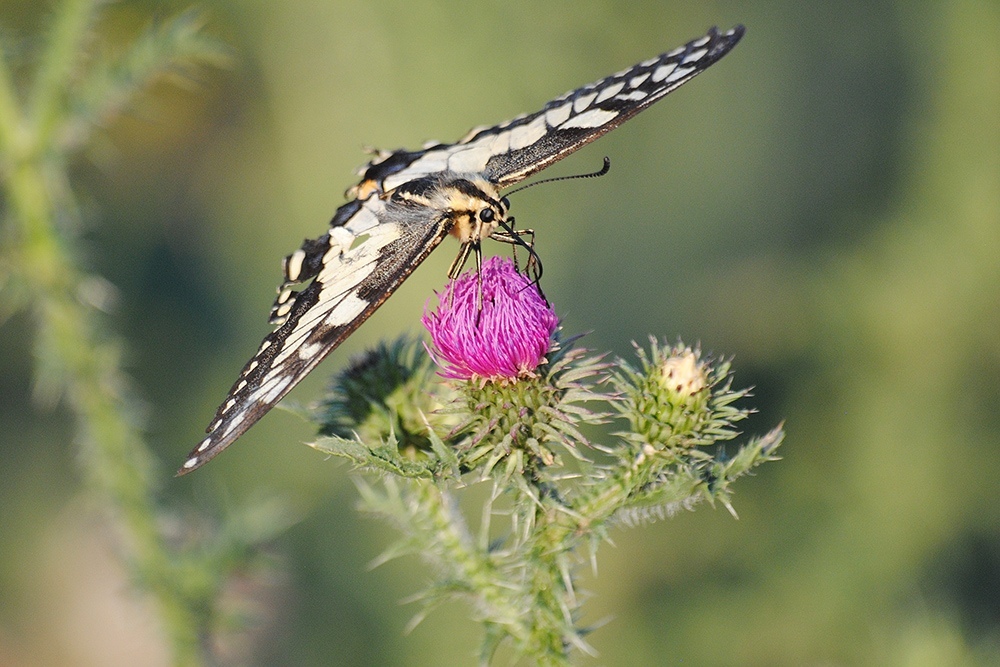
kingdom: Animalia
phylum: Arthropoda
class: Insecta
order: Lepidoptera
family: Papilionidae
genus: Papilio
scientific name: Papilio machaon
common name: Swallowtail
